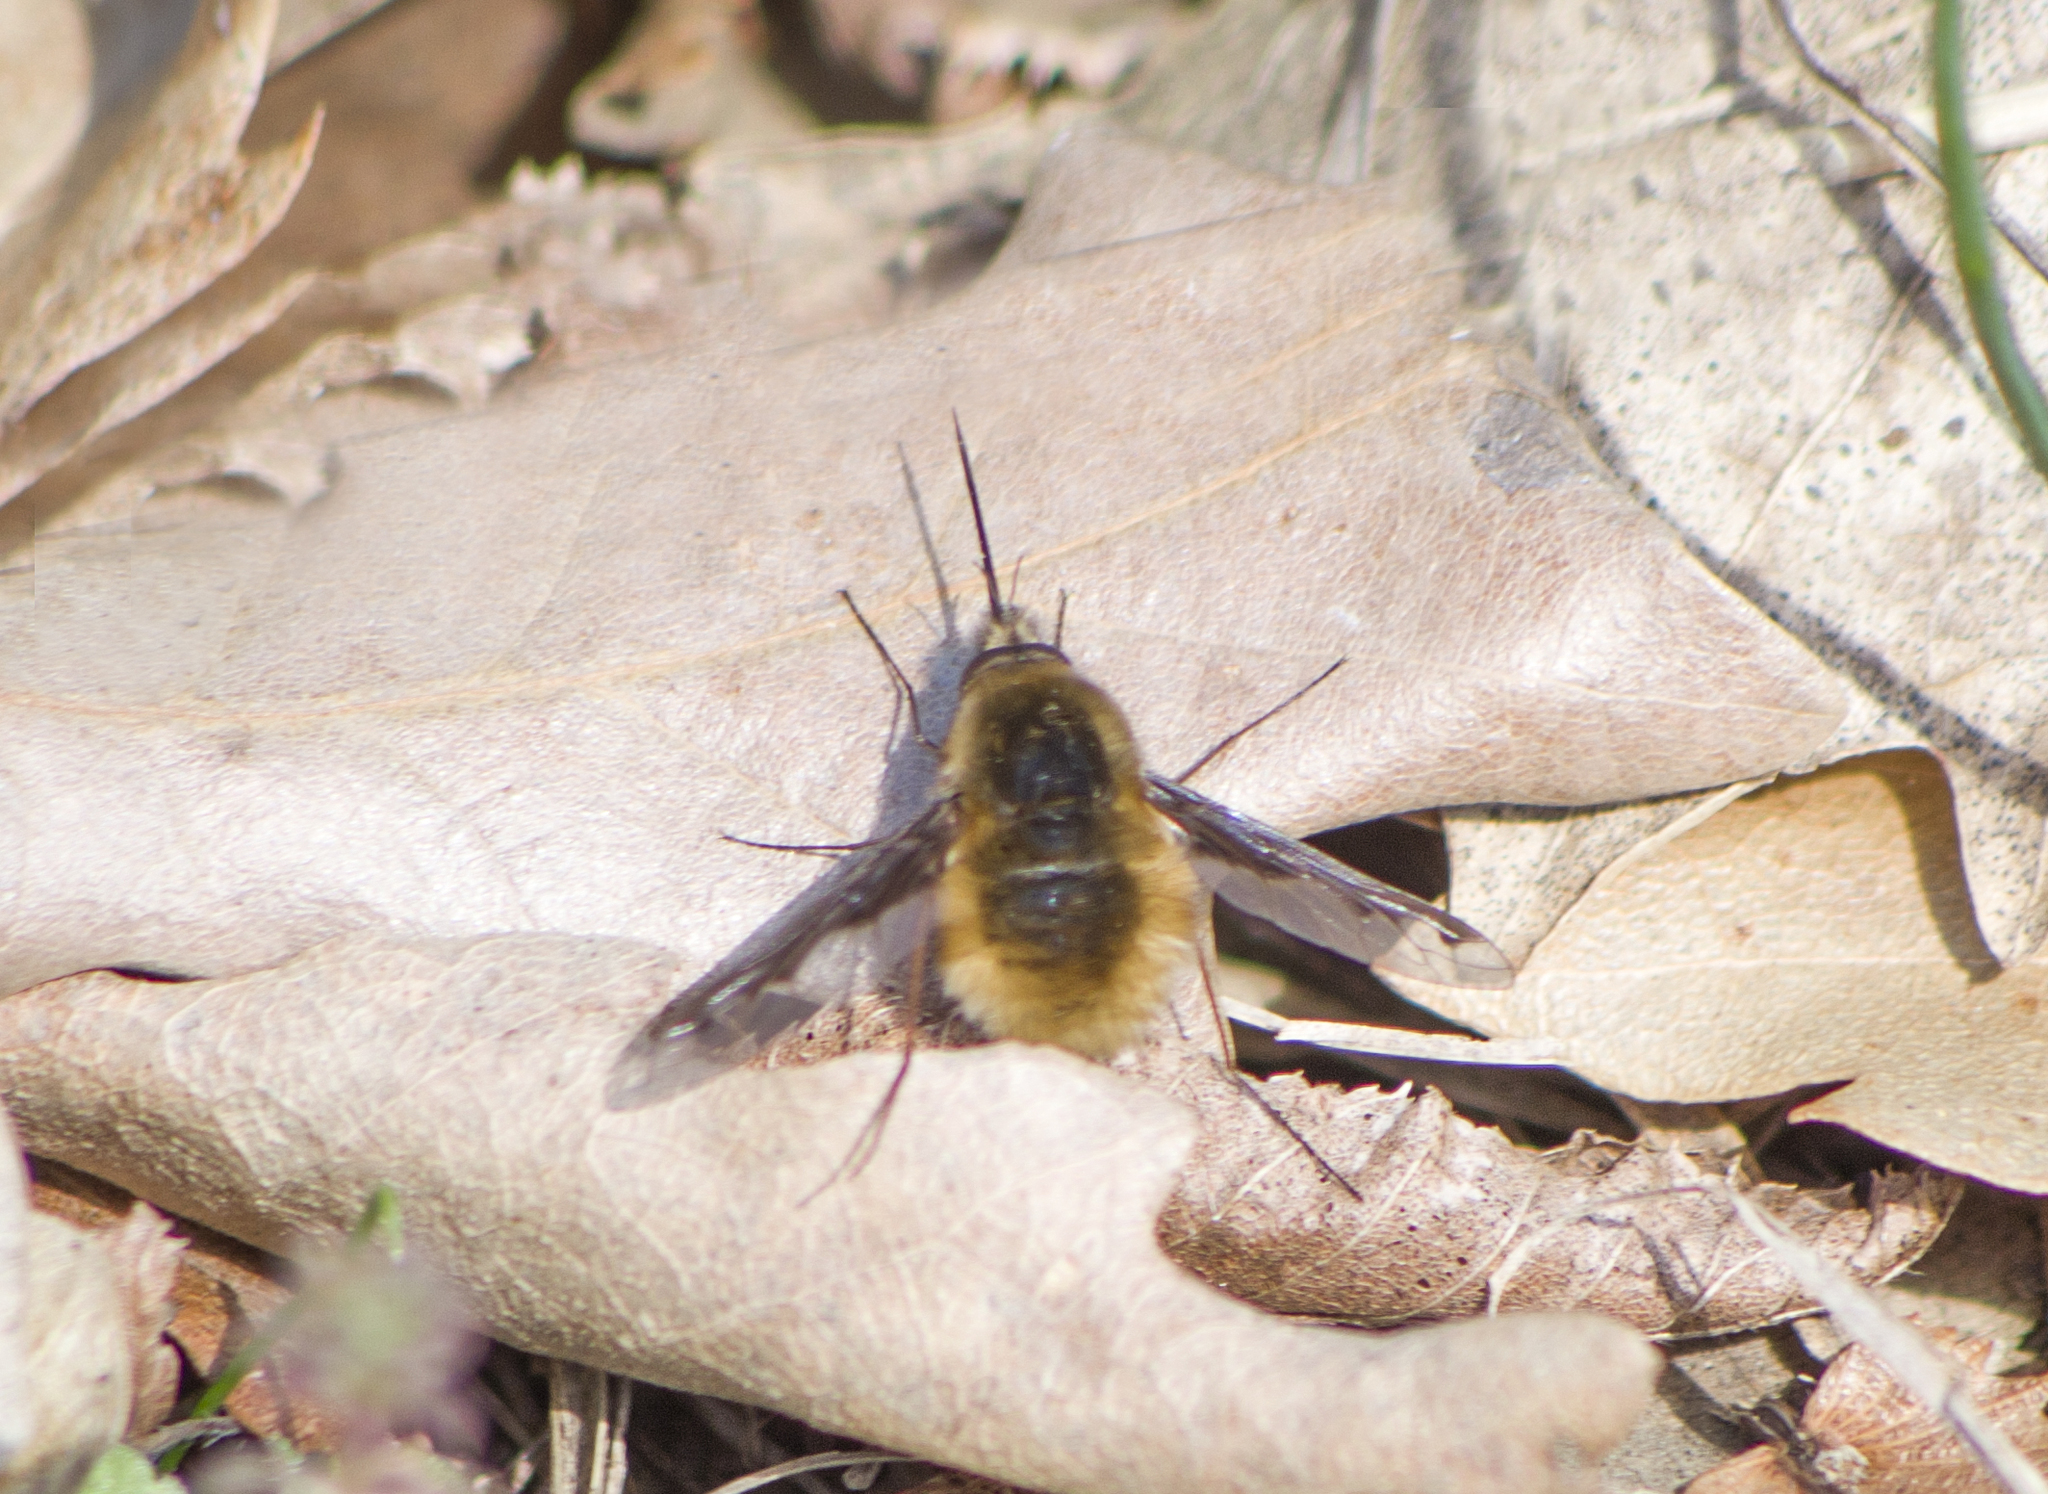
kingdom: Animalia
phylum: Arthropoda
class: Insecta
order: Diptera
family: Bombyliidae
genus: Bombylius
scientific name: Bombylius major
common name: Bee fly
